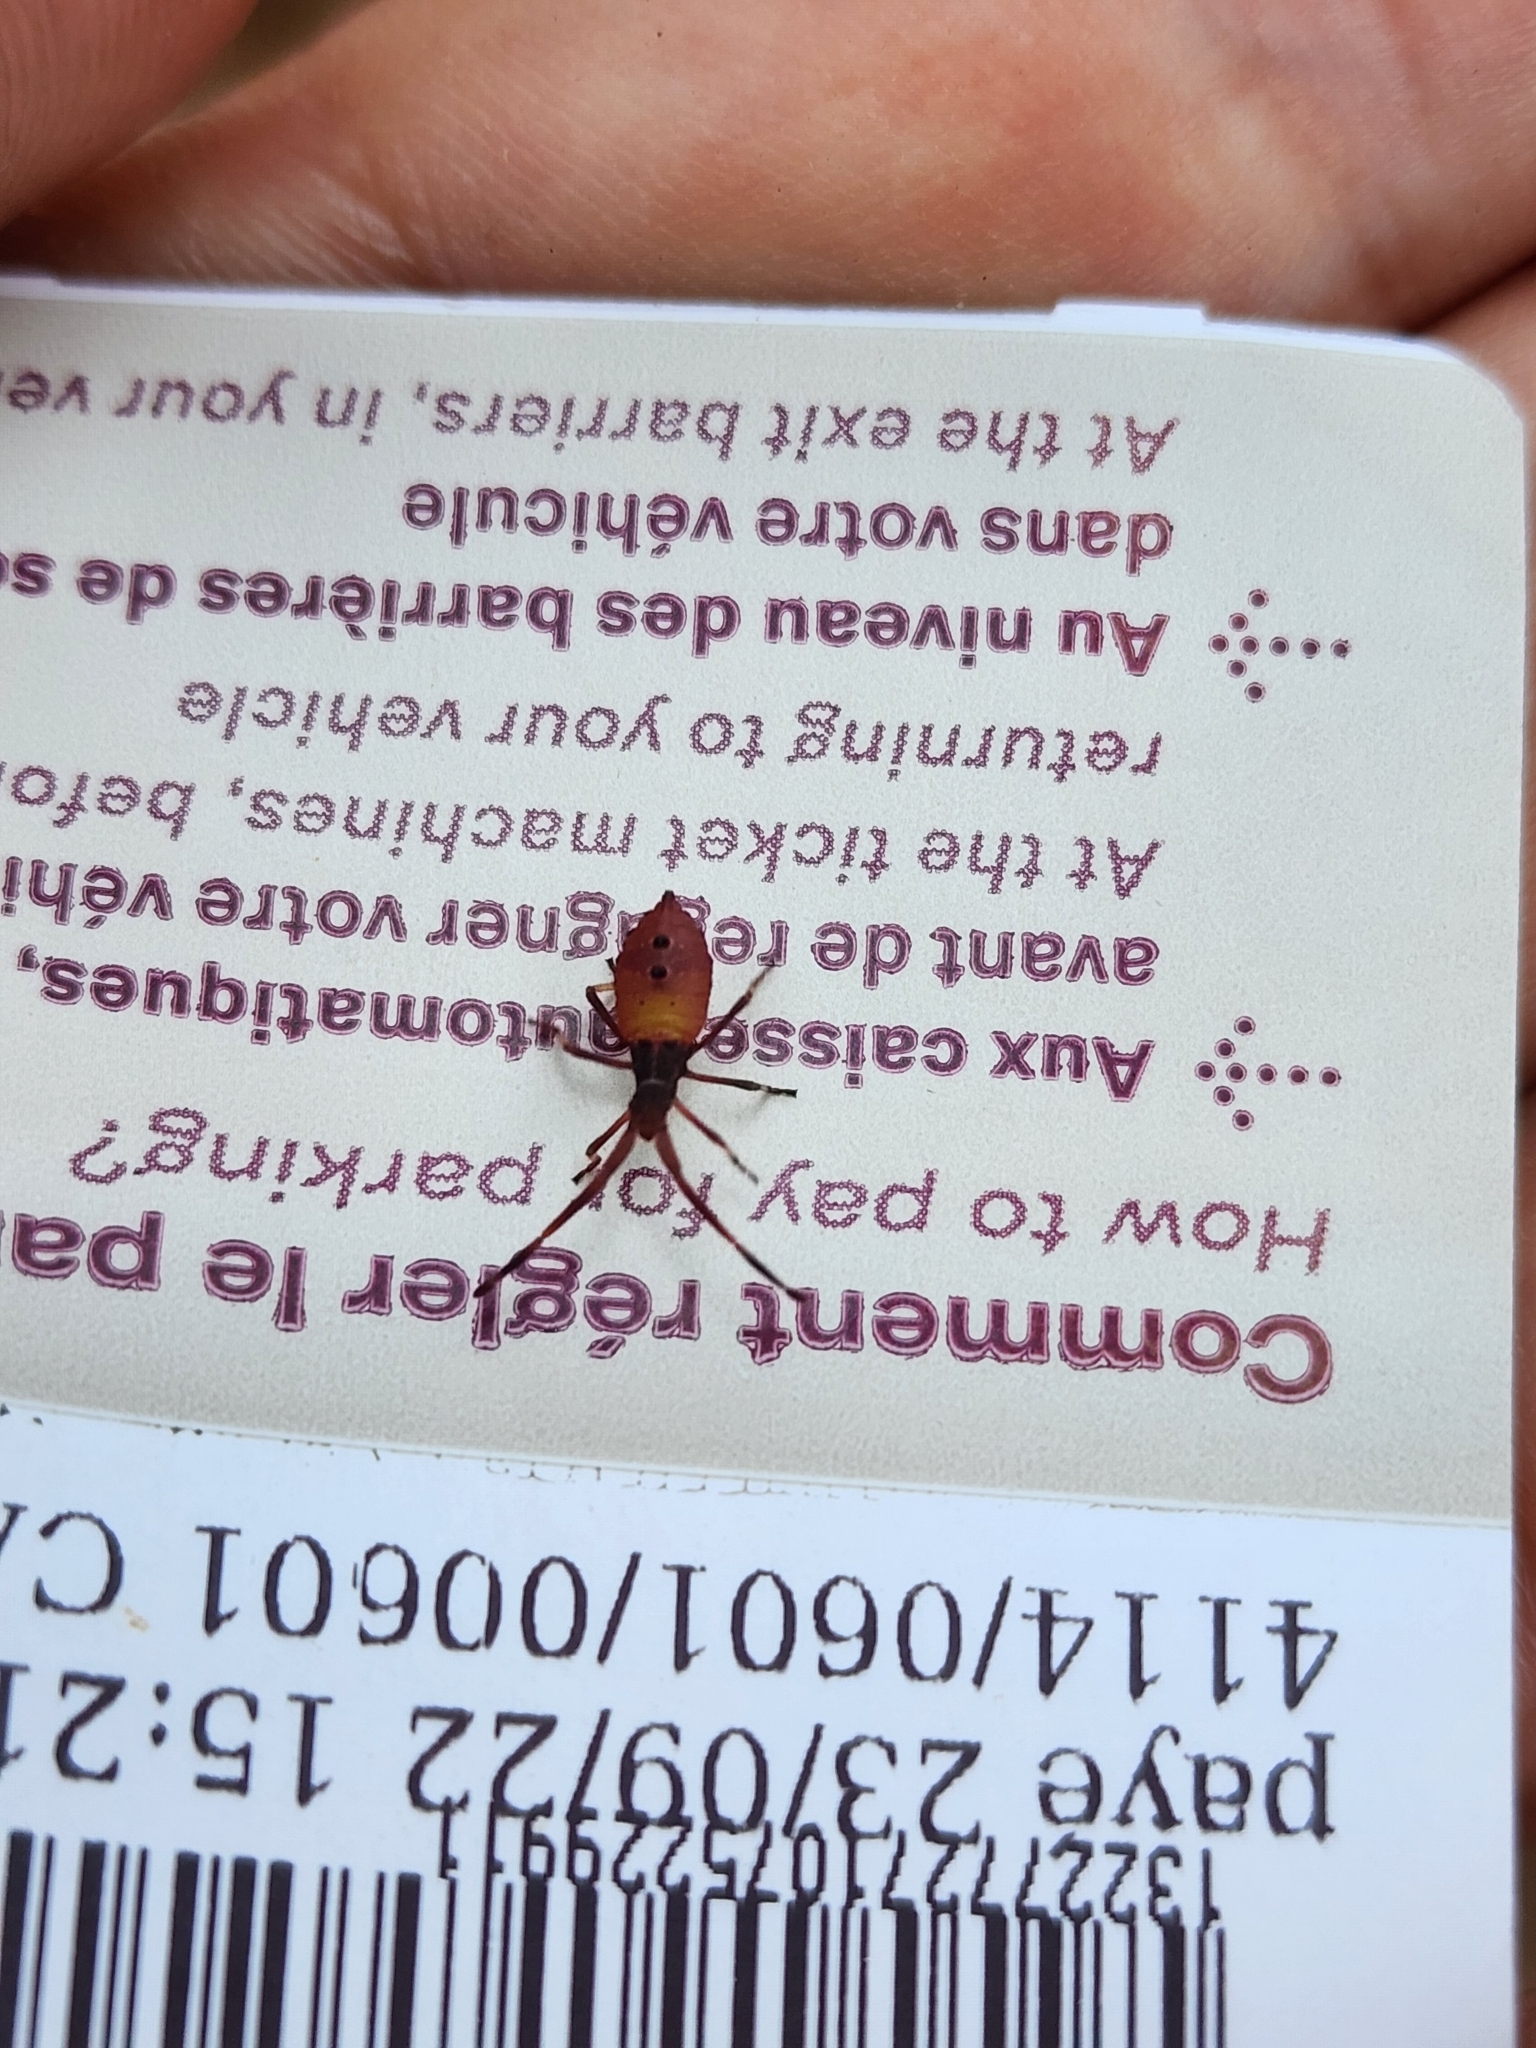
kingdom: Animalia
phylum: Arthropoda
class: Insecta
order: Hemiptera
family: Coreidae
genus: Gonocerus
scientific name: Gonocerus acuteangulatus
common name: Box bug
